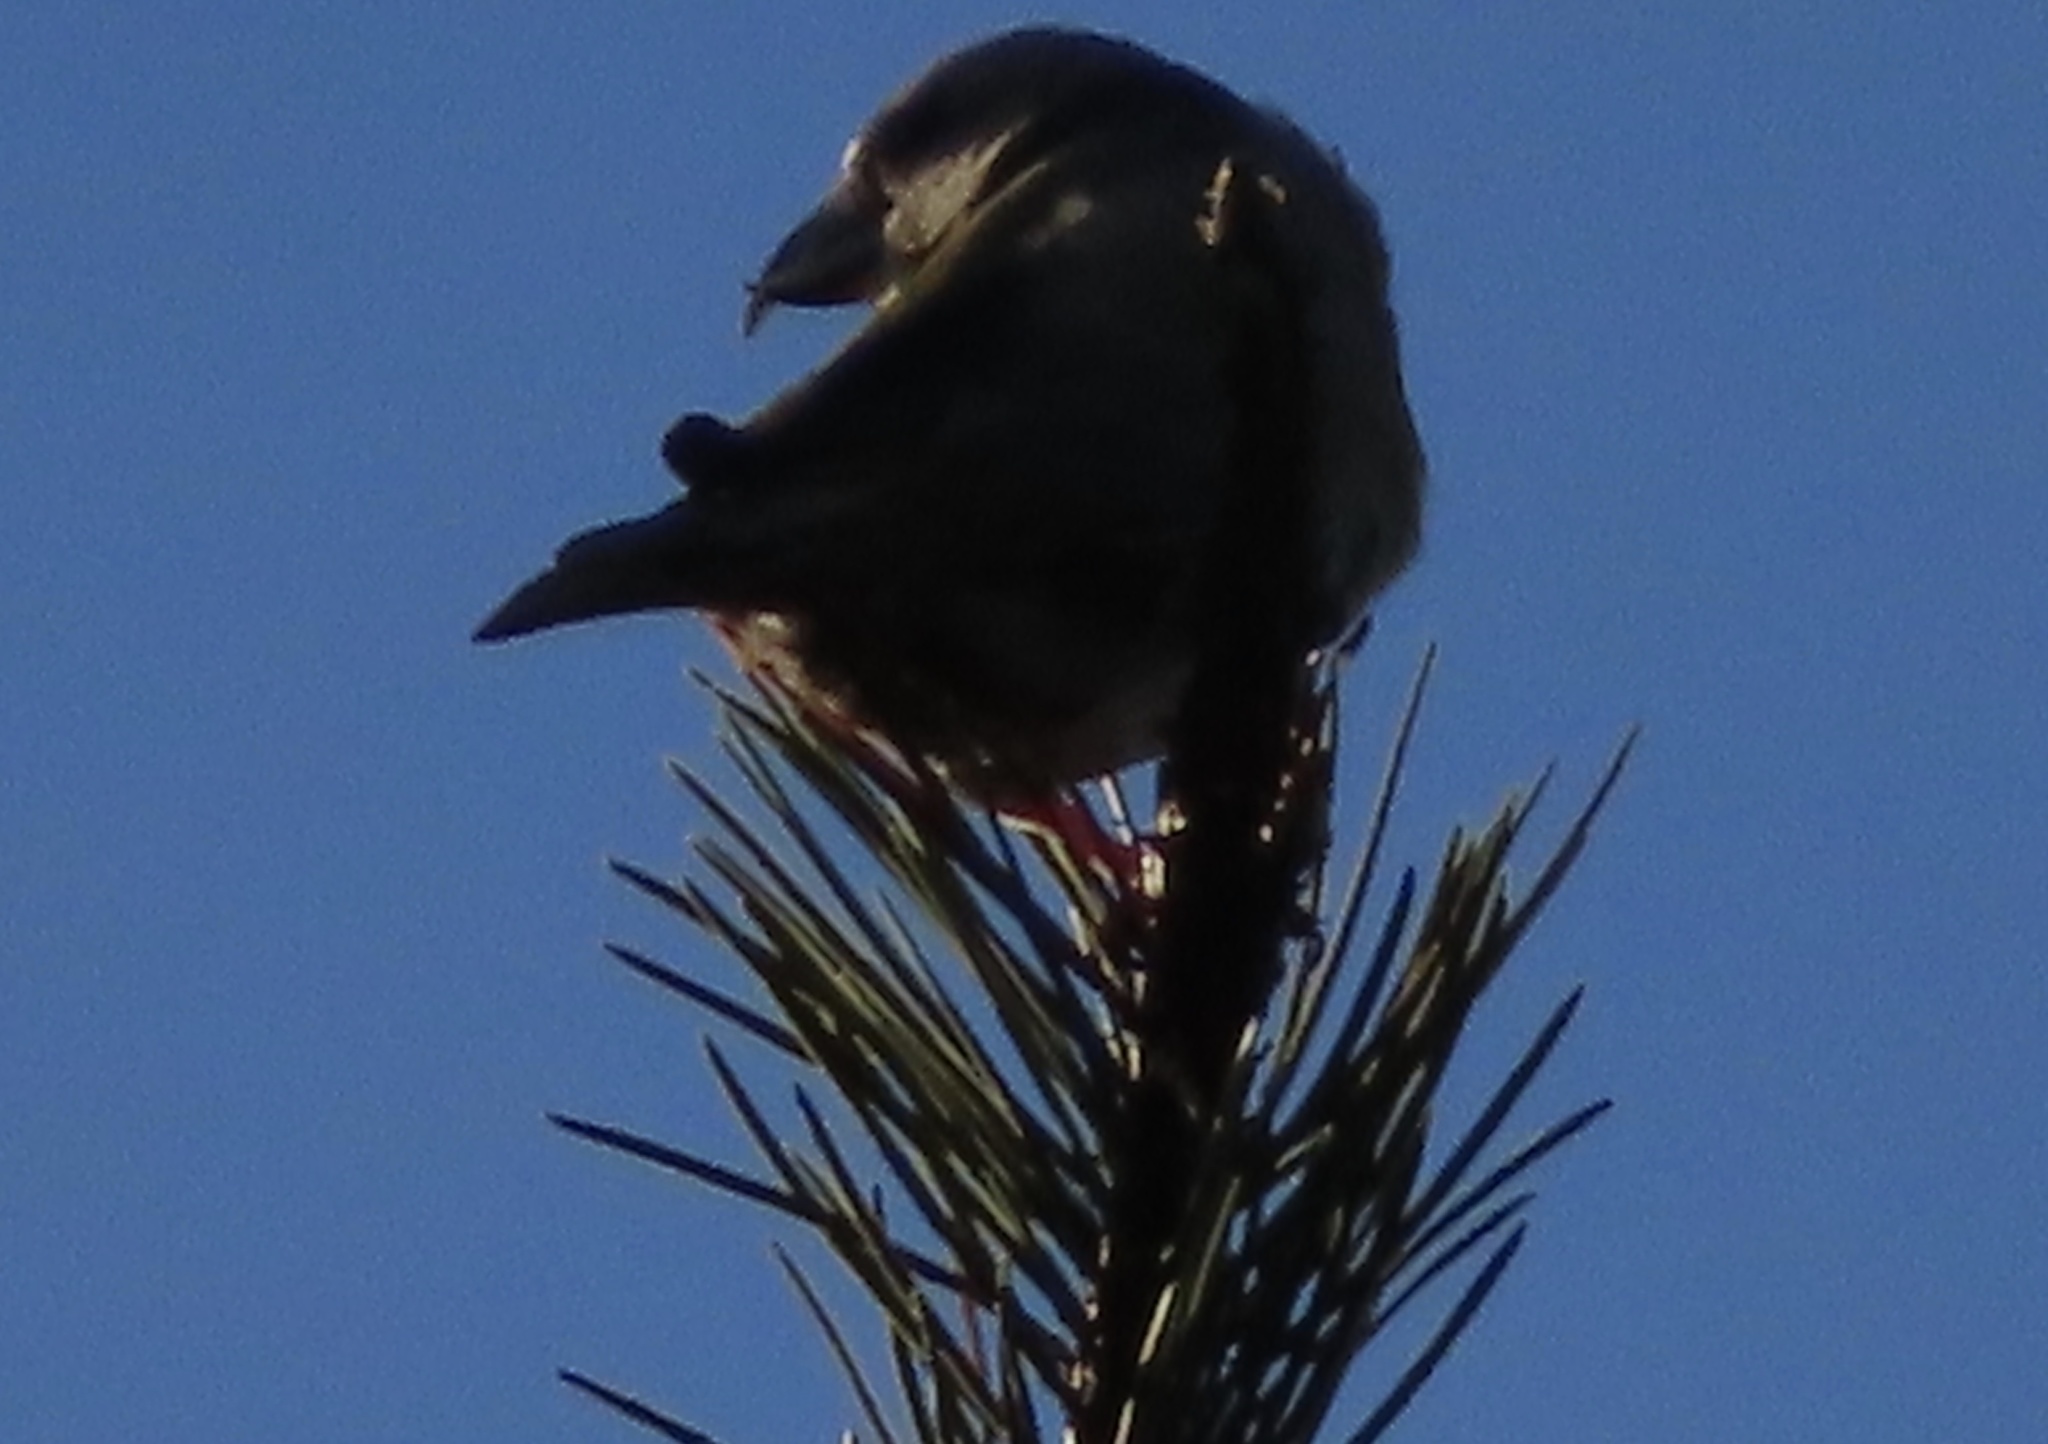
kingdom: Animalia
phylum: Chordata
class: Aves
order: Passeriformes
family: Fringillidae
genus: Loxia
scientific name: Loxia curvirostra
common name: Red crossbill
